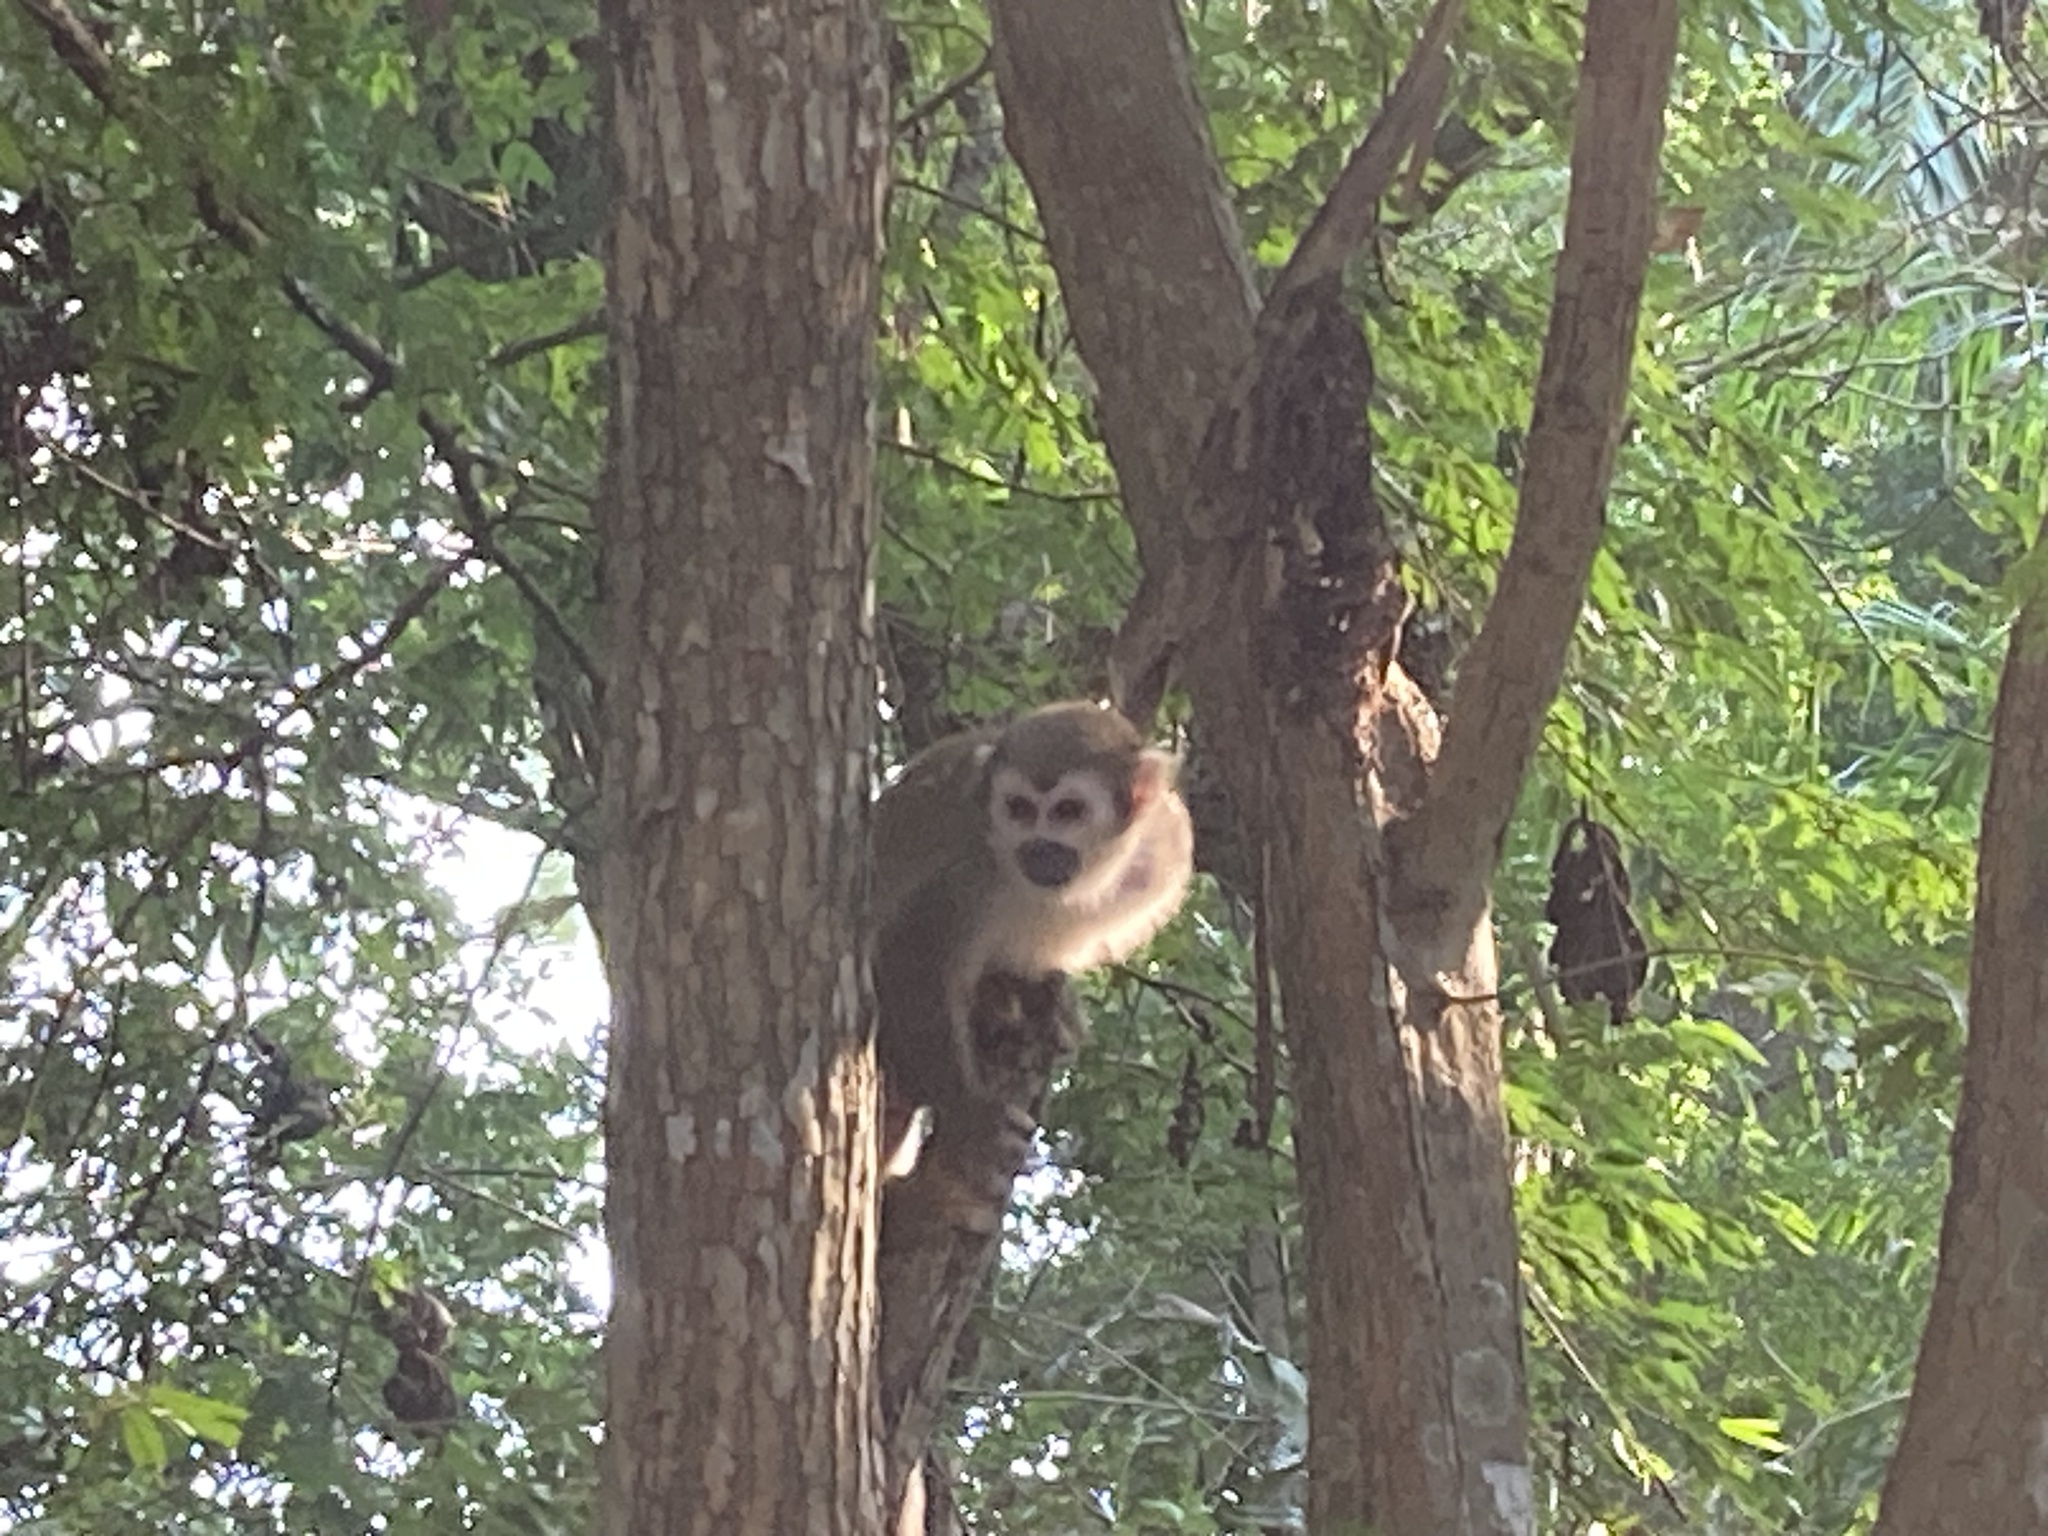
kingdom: Animalia
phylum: Chordata
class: Mammalia
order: Primates
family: Cebidae
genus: Saimiri
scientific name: Saimiri cassiquiarensis
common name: Humboldt’s squirrel monkey
